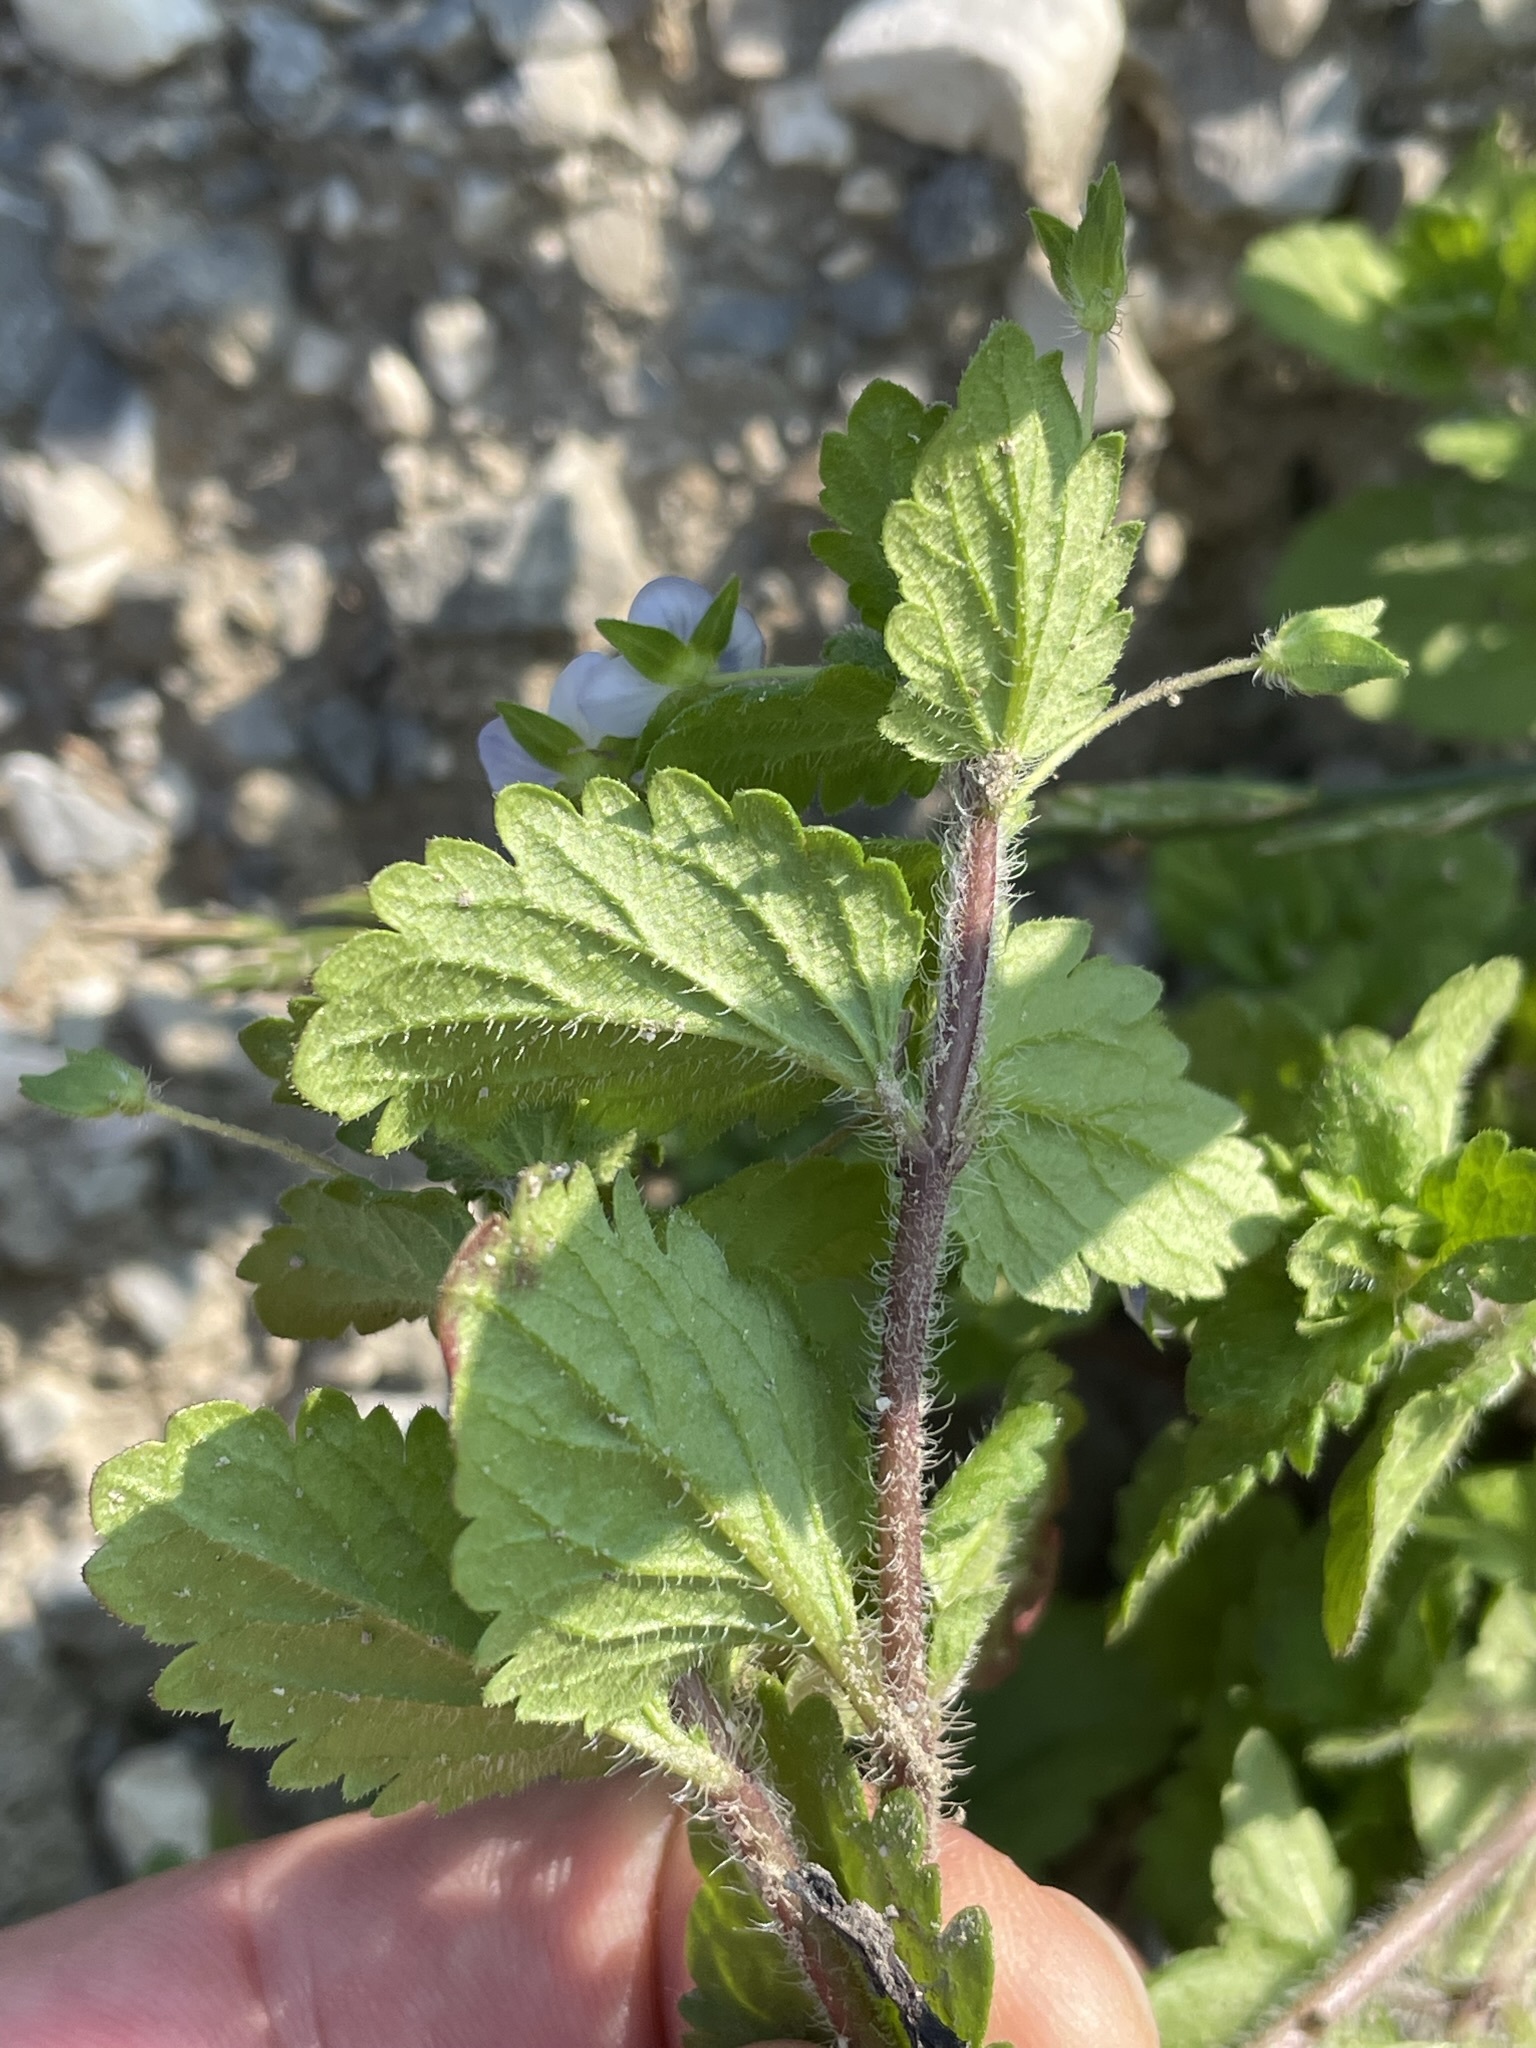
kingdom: Plantae
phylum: Tracheophyta
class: Magnoliopsida
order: Lamiales
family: Plantaginaceae
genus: Veronica
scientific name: Veronica persica
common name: Common field-speedwell
